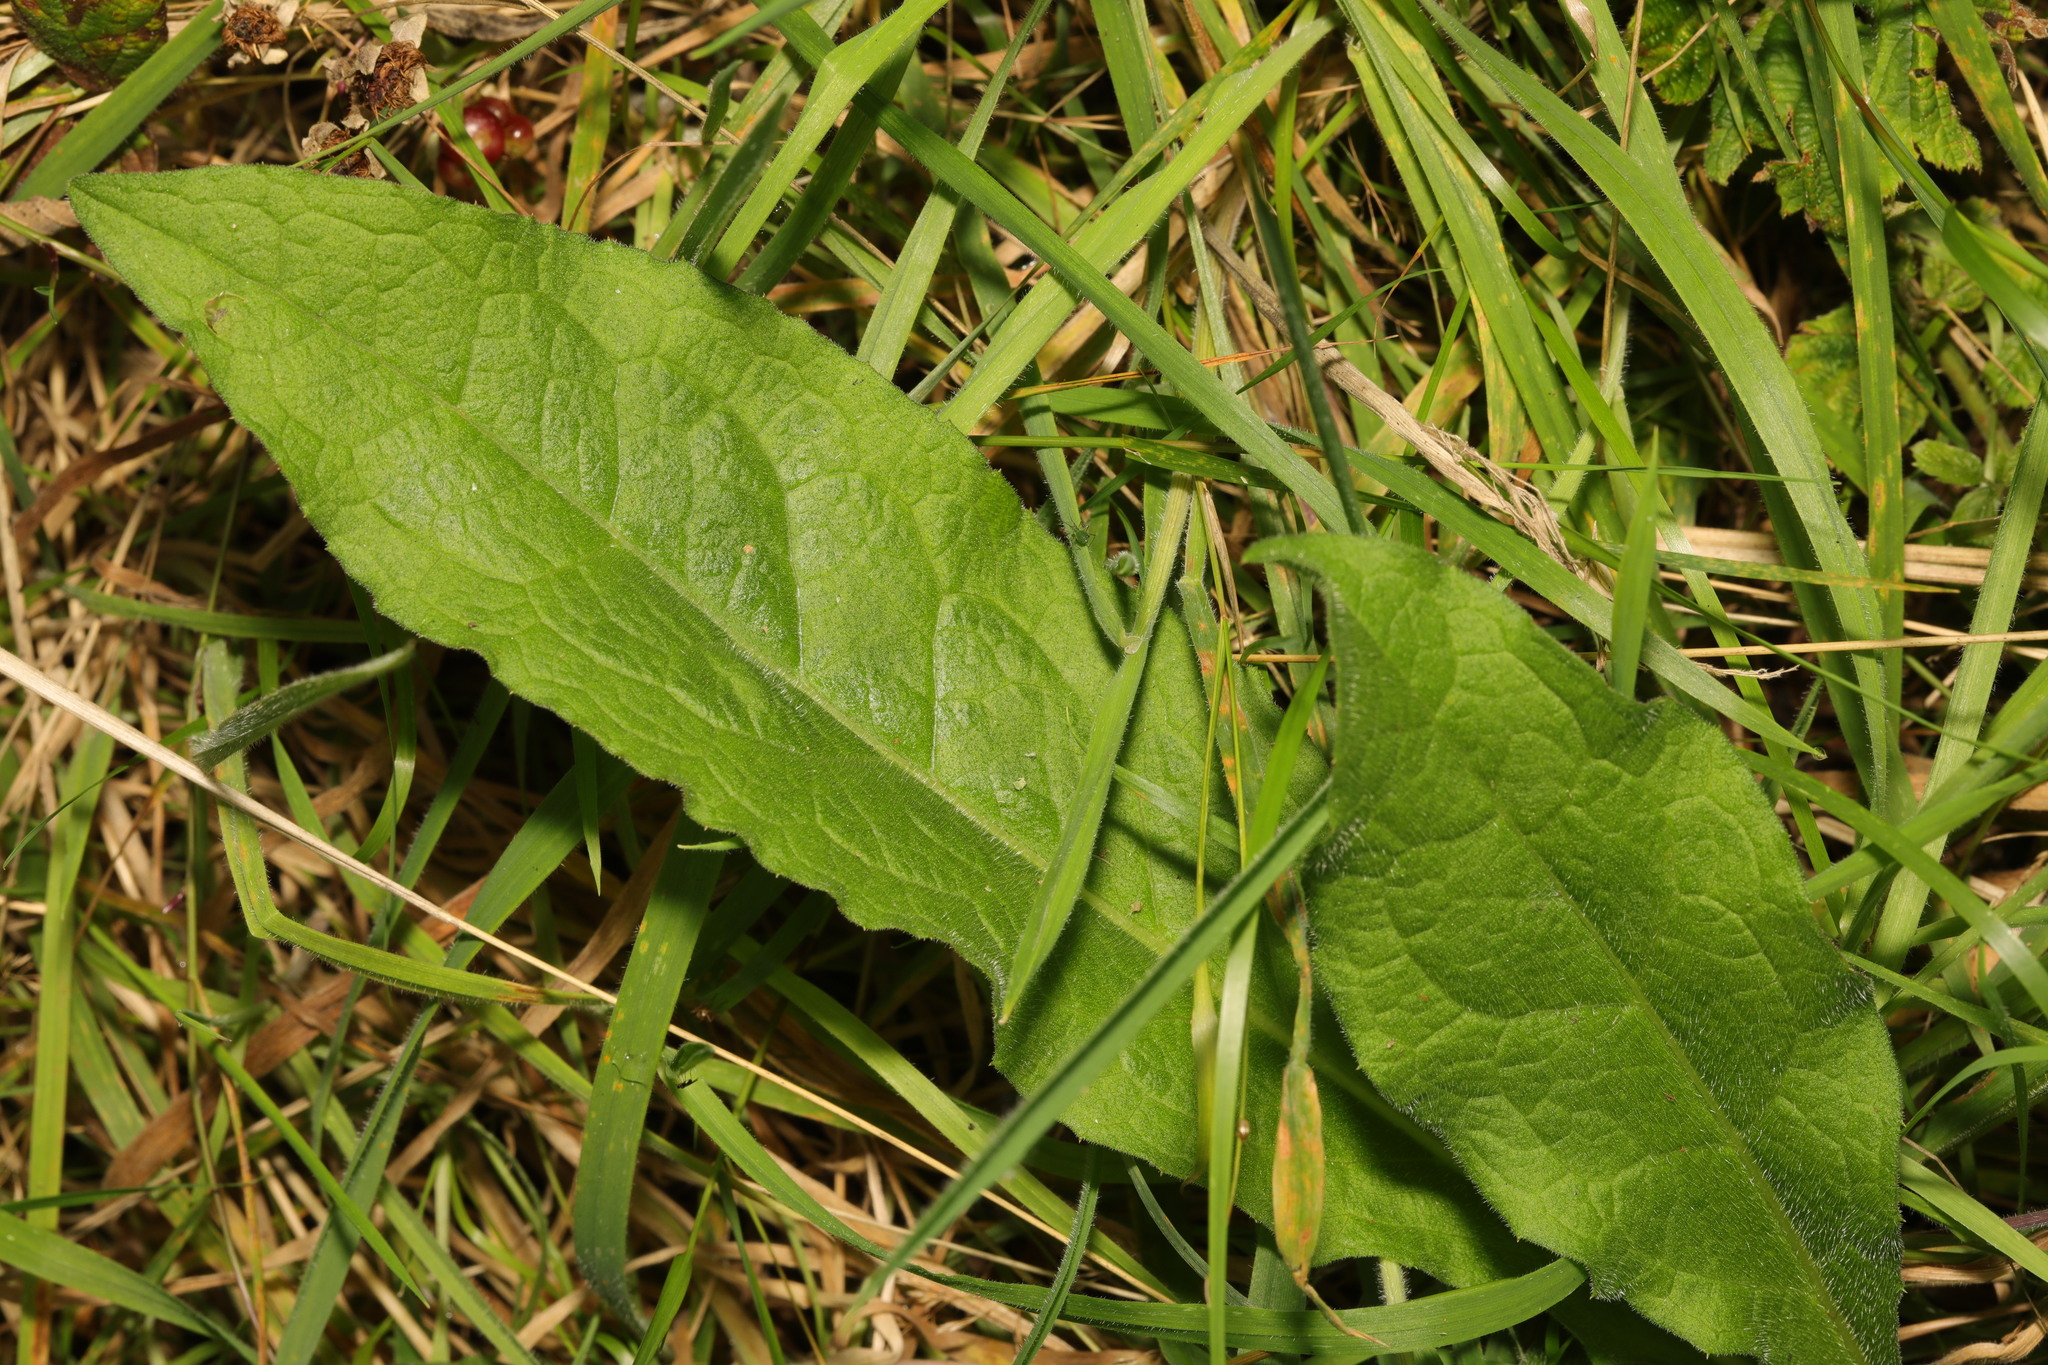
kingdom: Plantae
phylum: Tracheophyta
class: Magnoliopsida
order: Asterales
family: Asteraceae
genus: Centaurea
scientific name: Centaurea nigra
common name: Lesser knapweed
